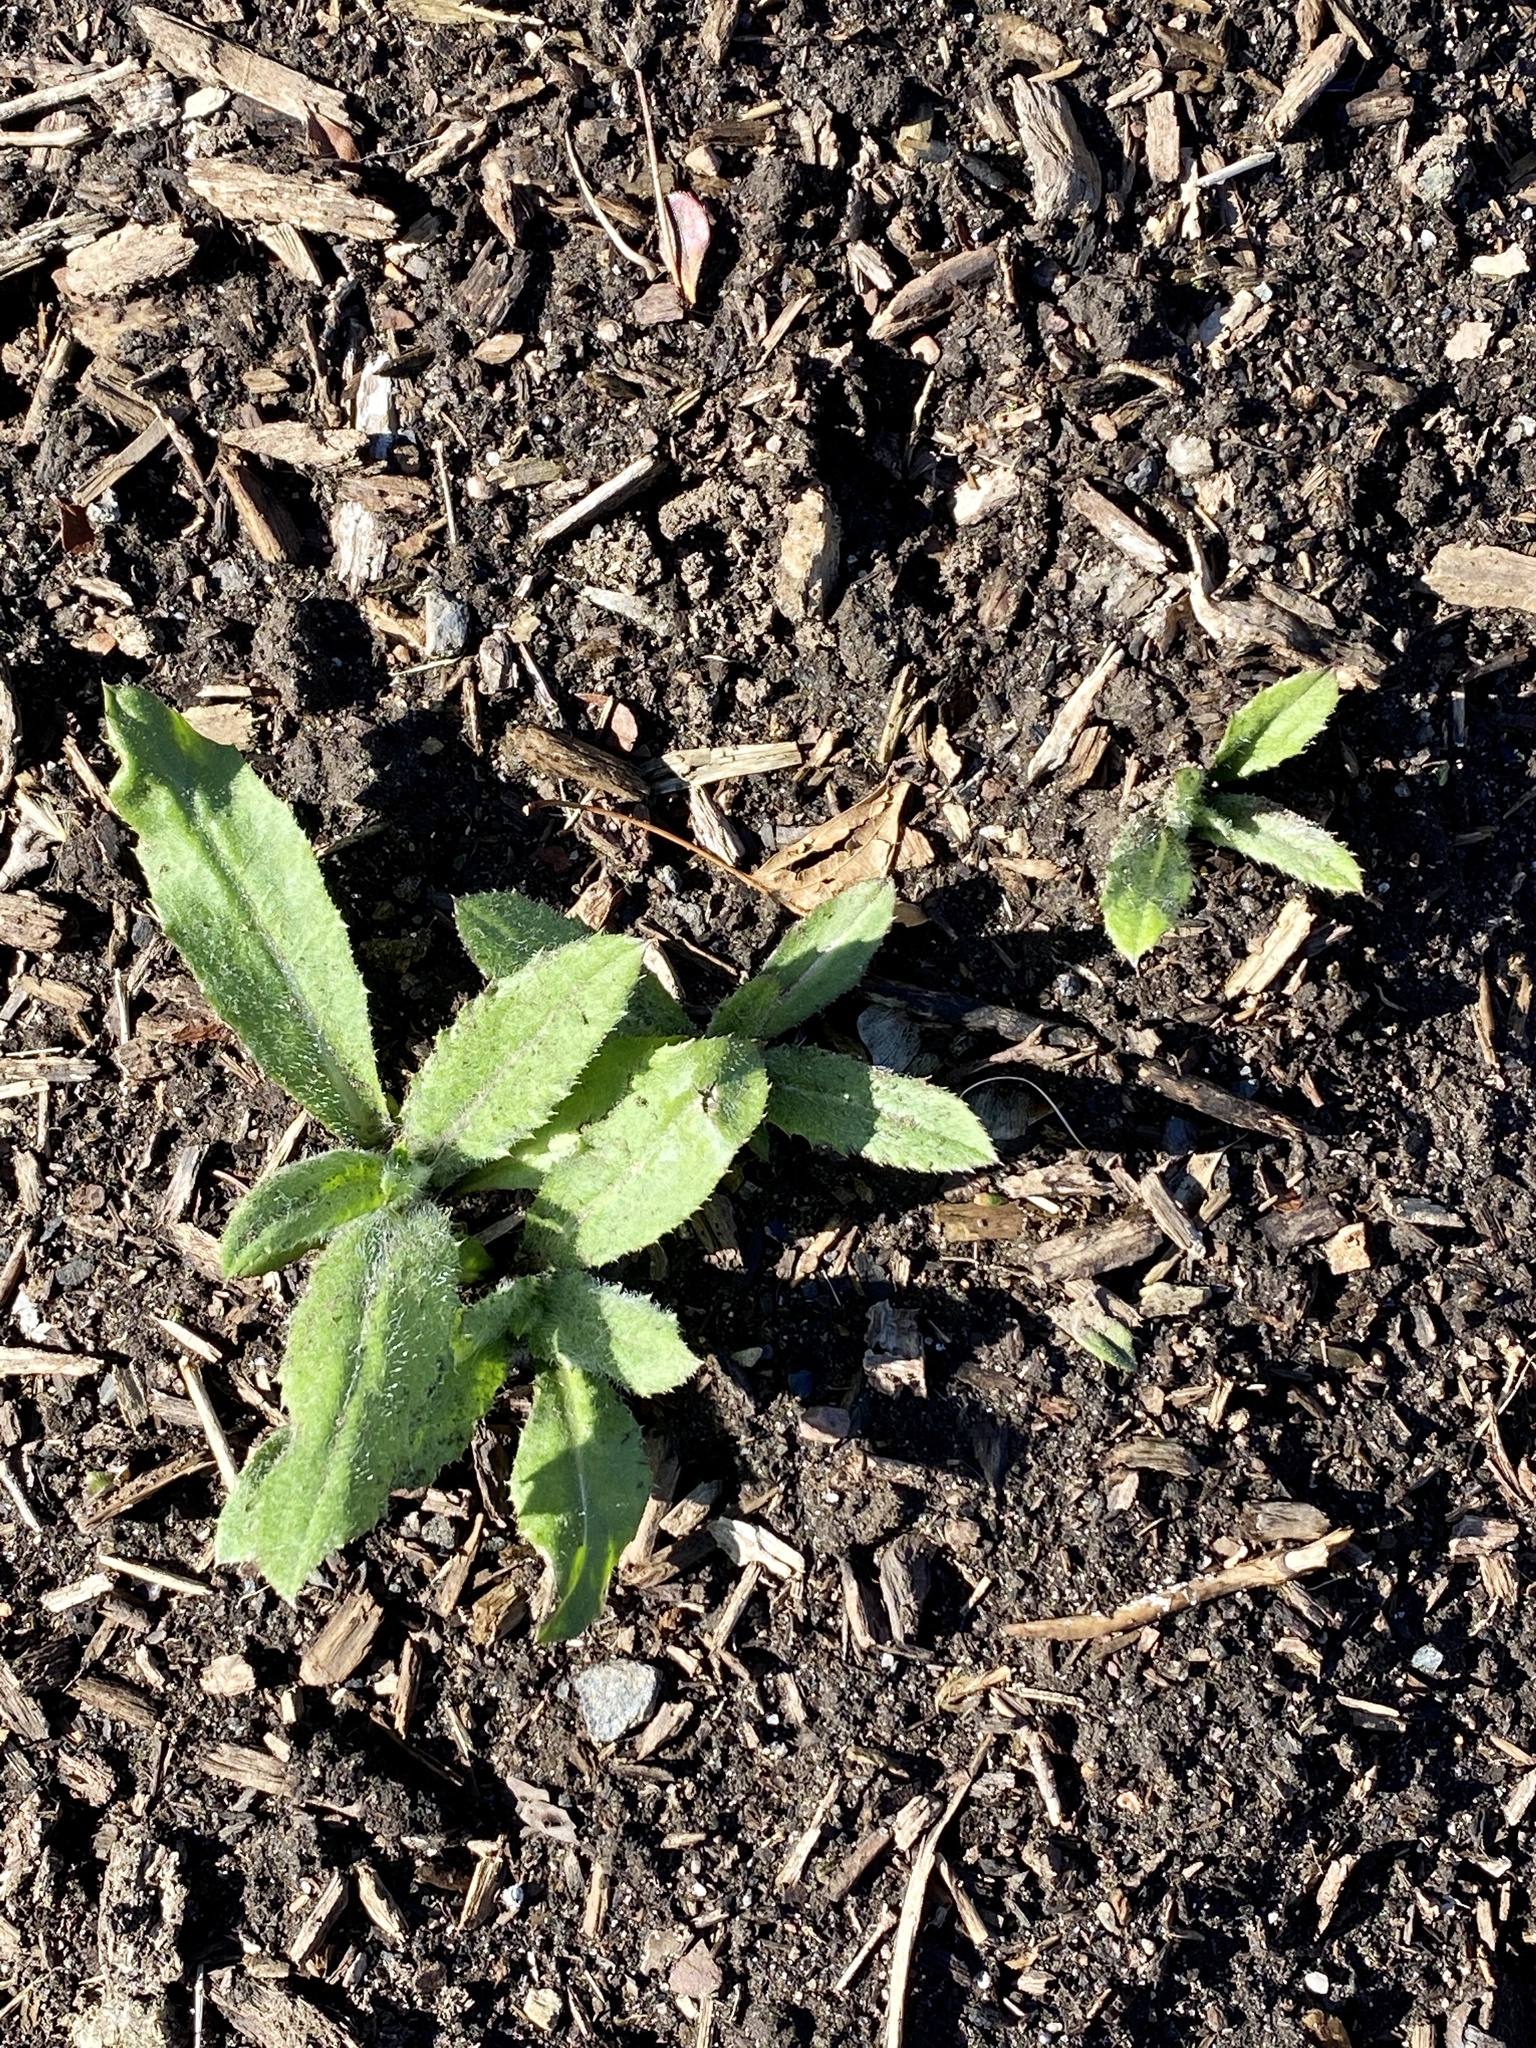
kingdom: Plantae
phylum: Tracheophyta
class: Magnoliopsida
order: Asterales
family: Asteraceae
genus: Cirsium
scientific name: Cirsium arvense
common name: Creeping thistle
